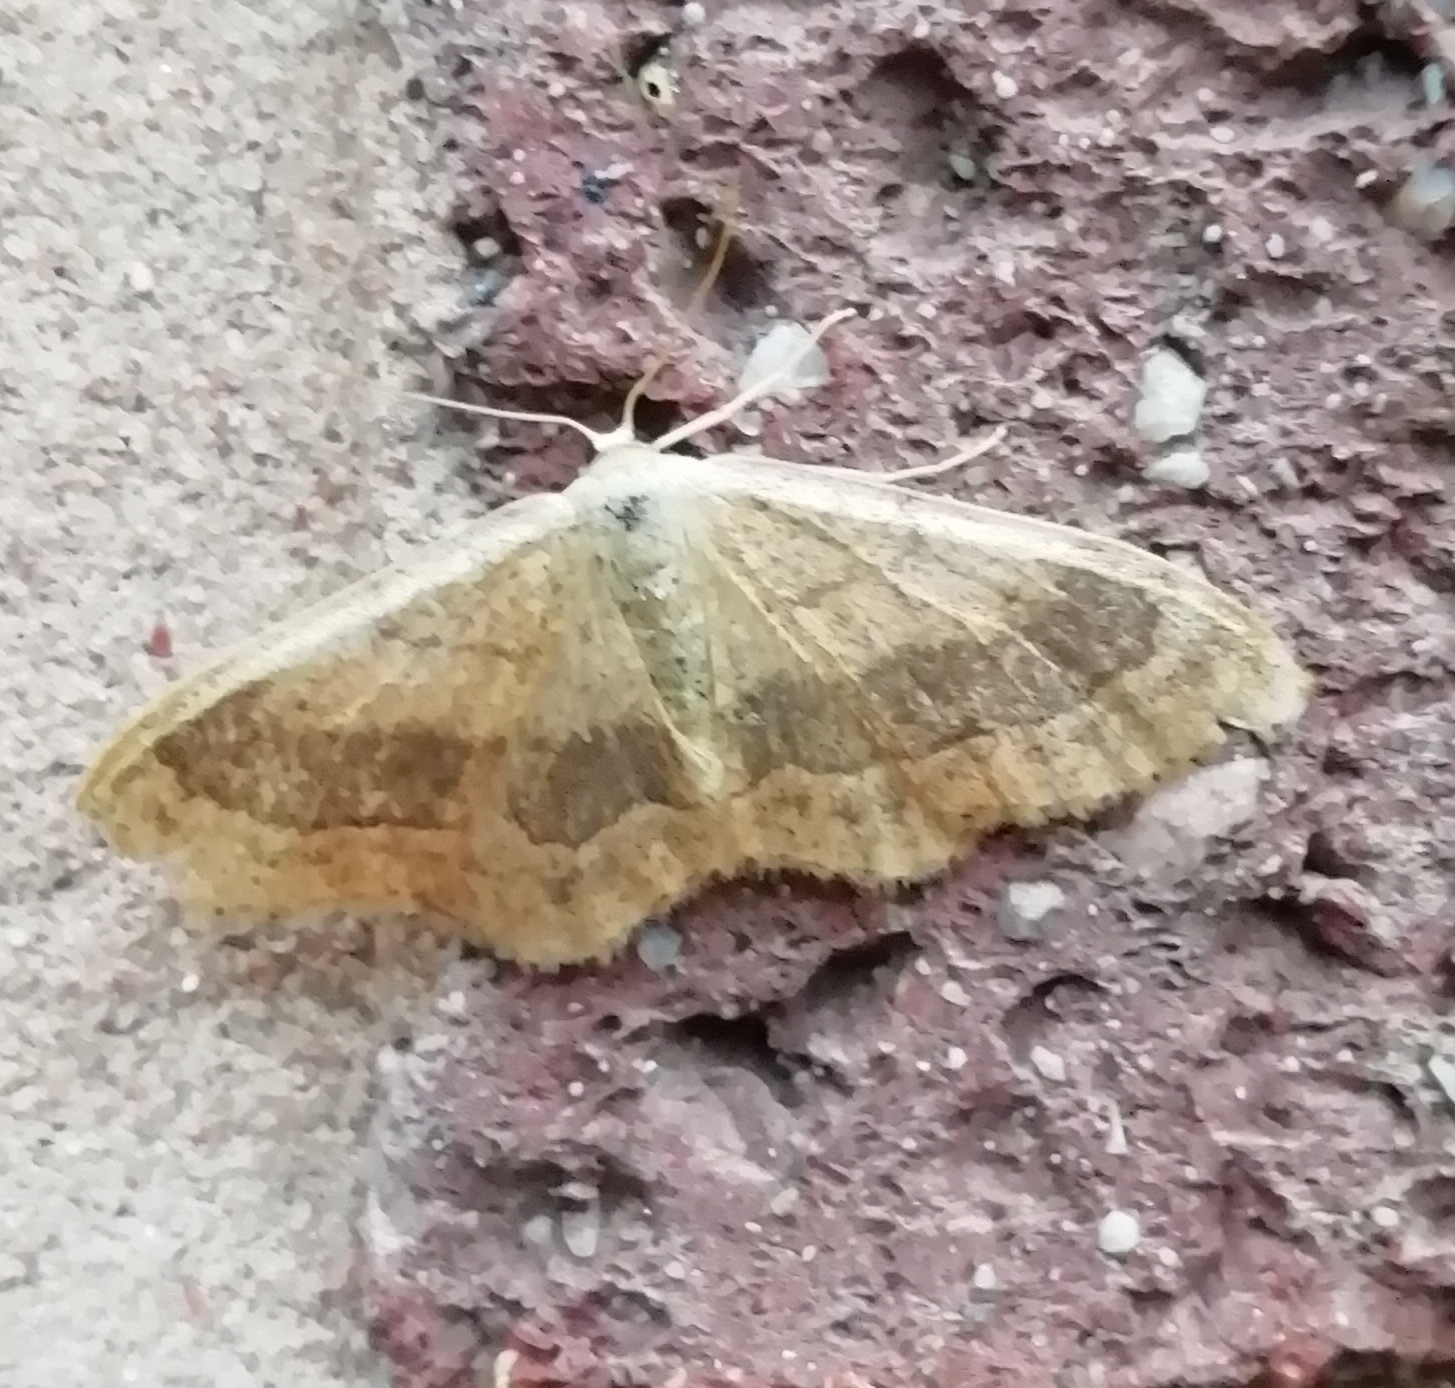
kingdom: Animalia
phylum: Arthropoda
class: Insecta
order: Lepidoptera
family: Geometridae
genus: Idaea
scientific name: Idaea aversata
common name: Riband wave
